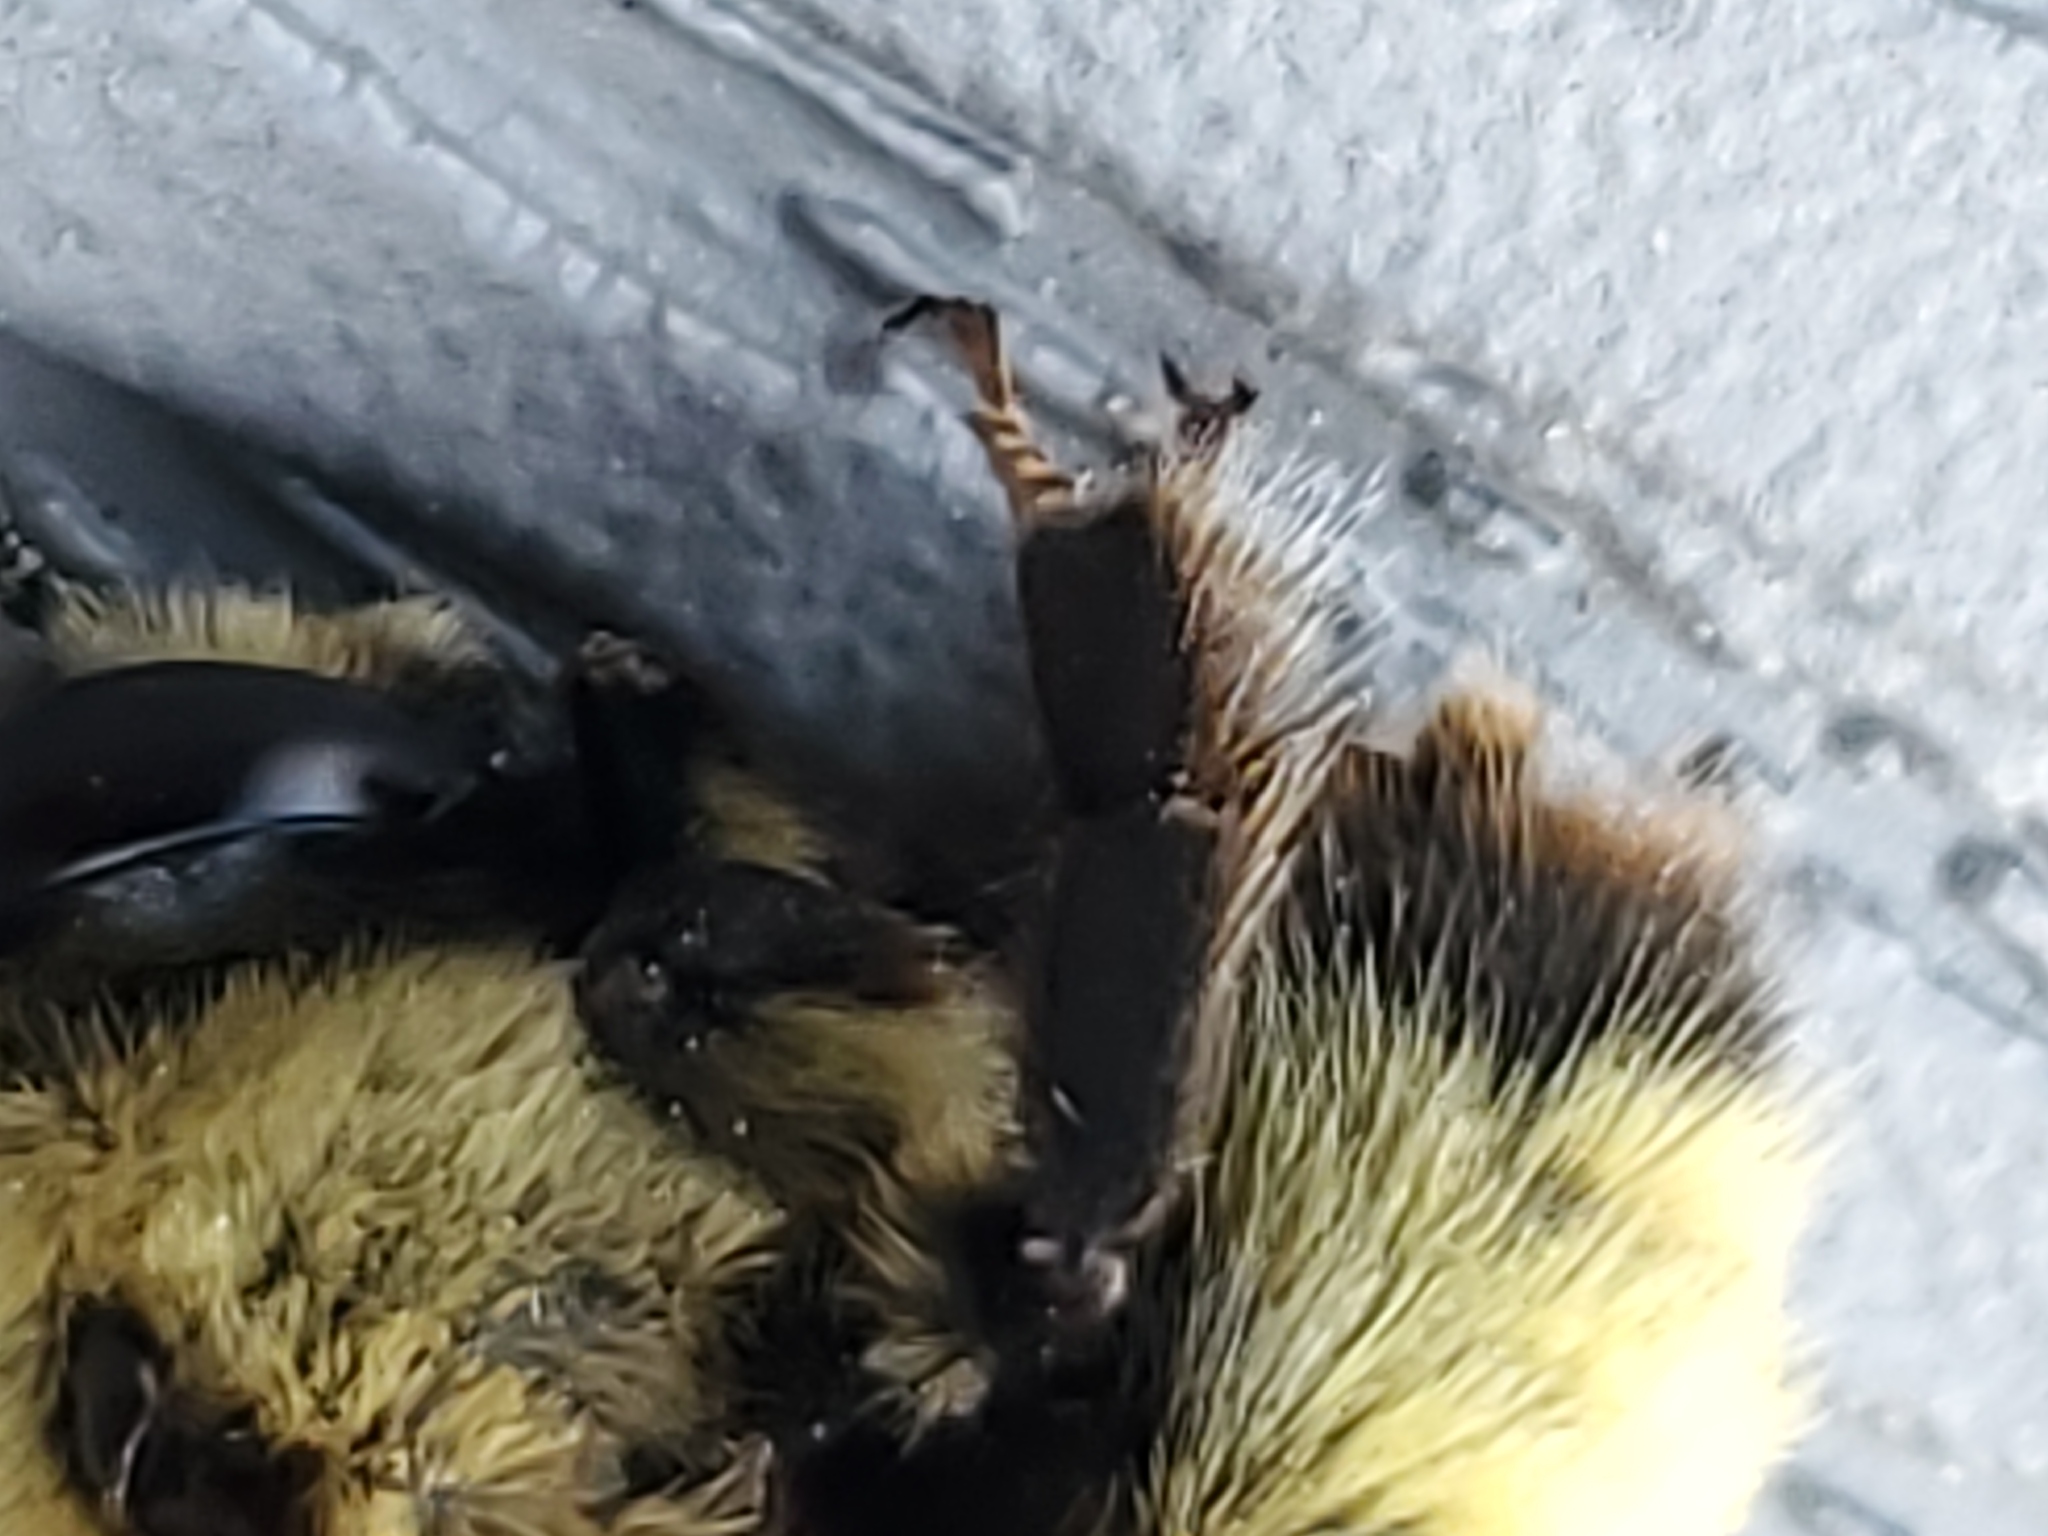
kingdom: Animalia
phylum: Arthropoda
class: Insecta
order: Hymenoptera
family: Apidae
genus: Bombus
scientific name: Bombus nevadensis
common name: Nevada bumble bee
